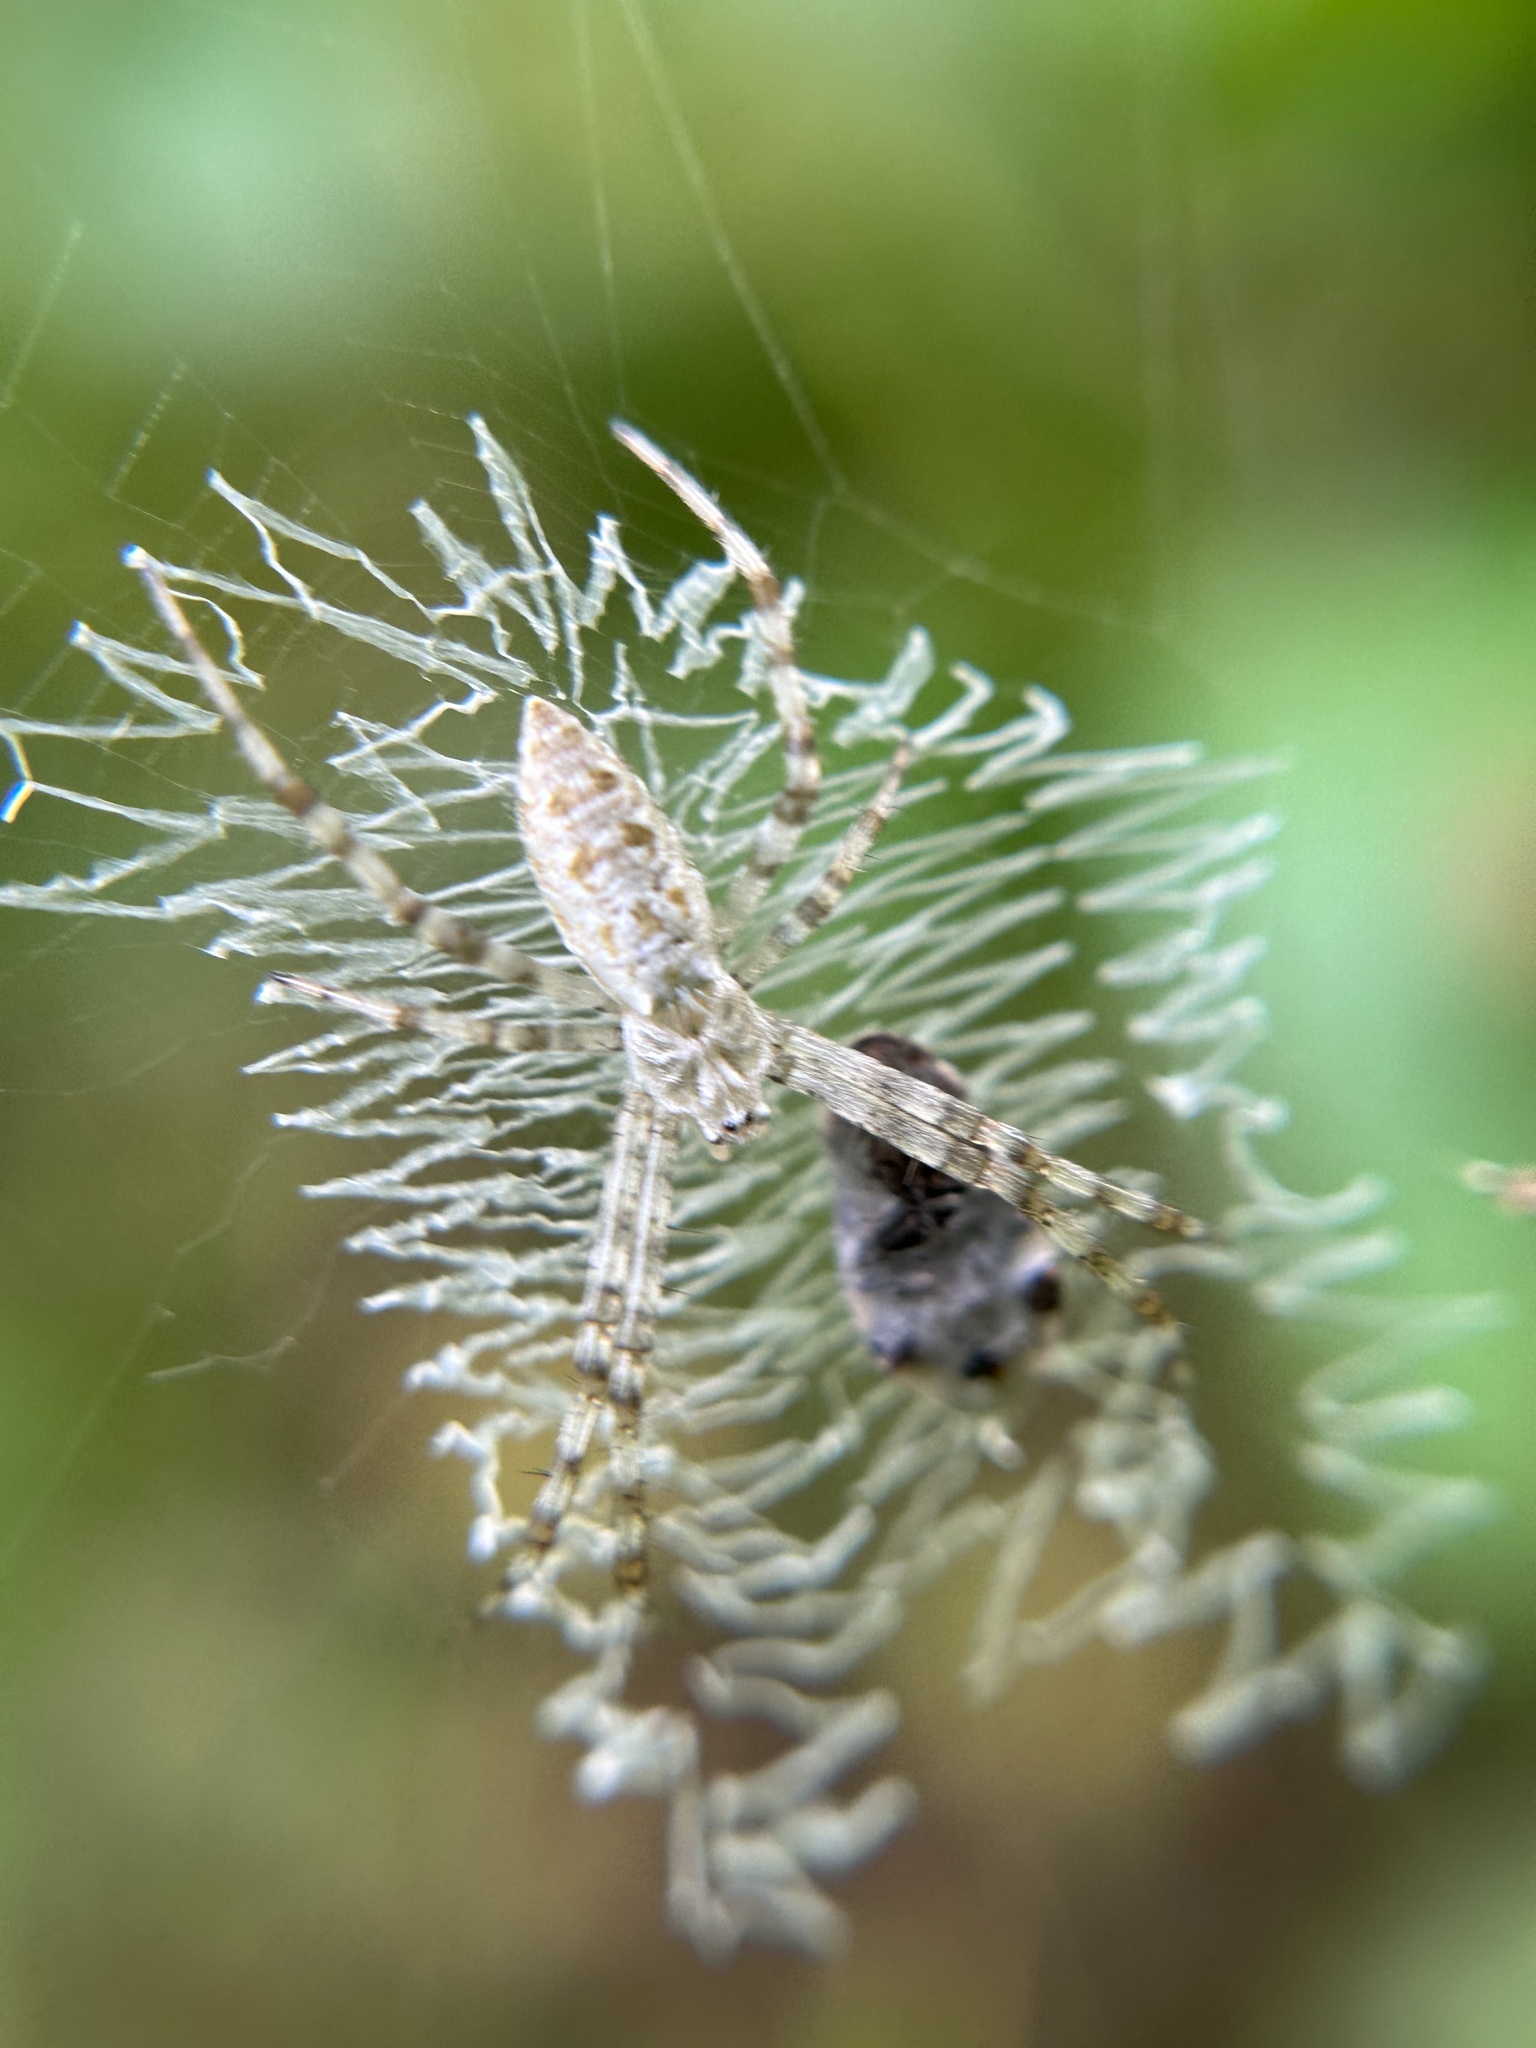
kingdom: Animalia
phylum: Arthropoda
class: Arachnida
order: Araneae
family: Araneidae
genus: Argiope
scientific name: Argiope aurantia
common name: Orb weavers
